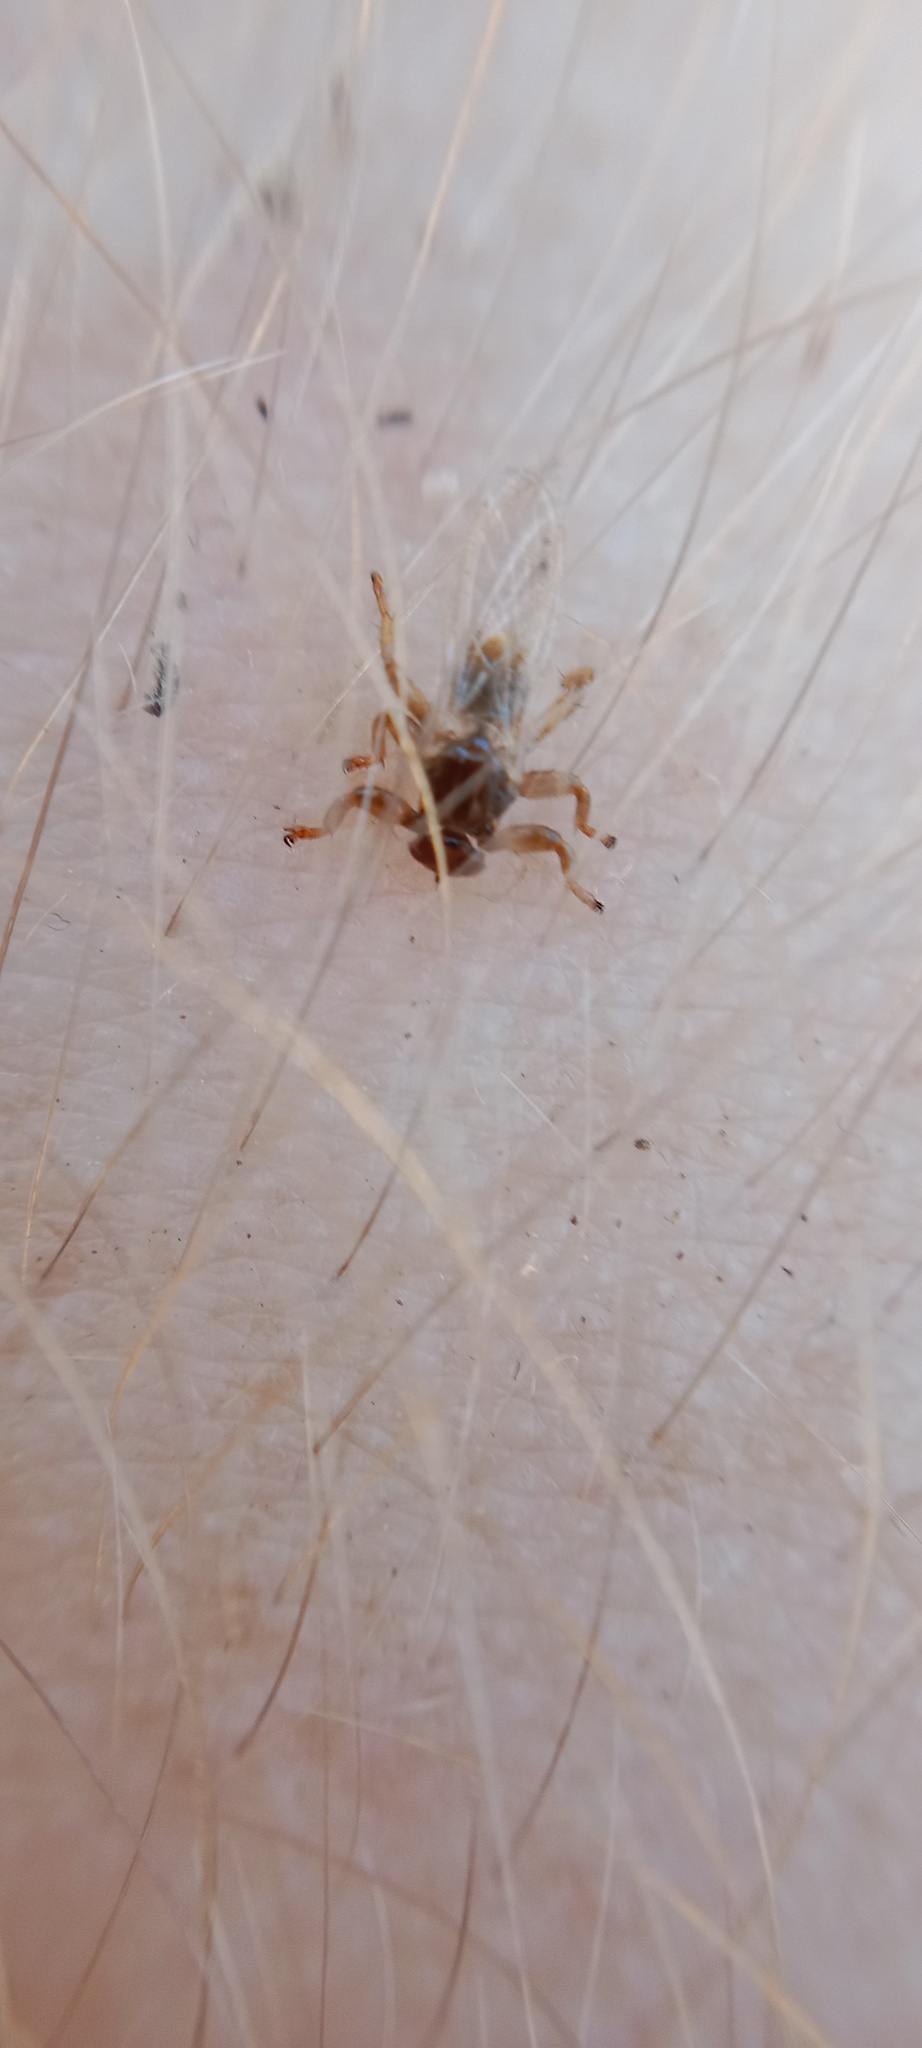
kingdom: Animalia
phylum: Arthropoda
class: Insecta
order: Diptera
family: Hippoboscidae
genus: Lipoptena
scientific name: Lipoptena cervi
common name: Deer ked
